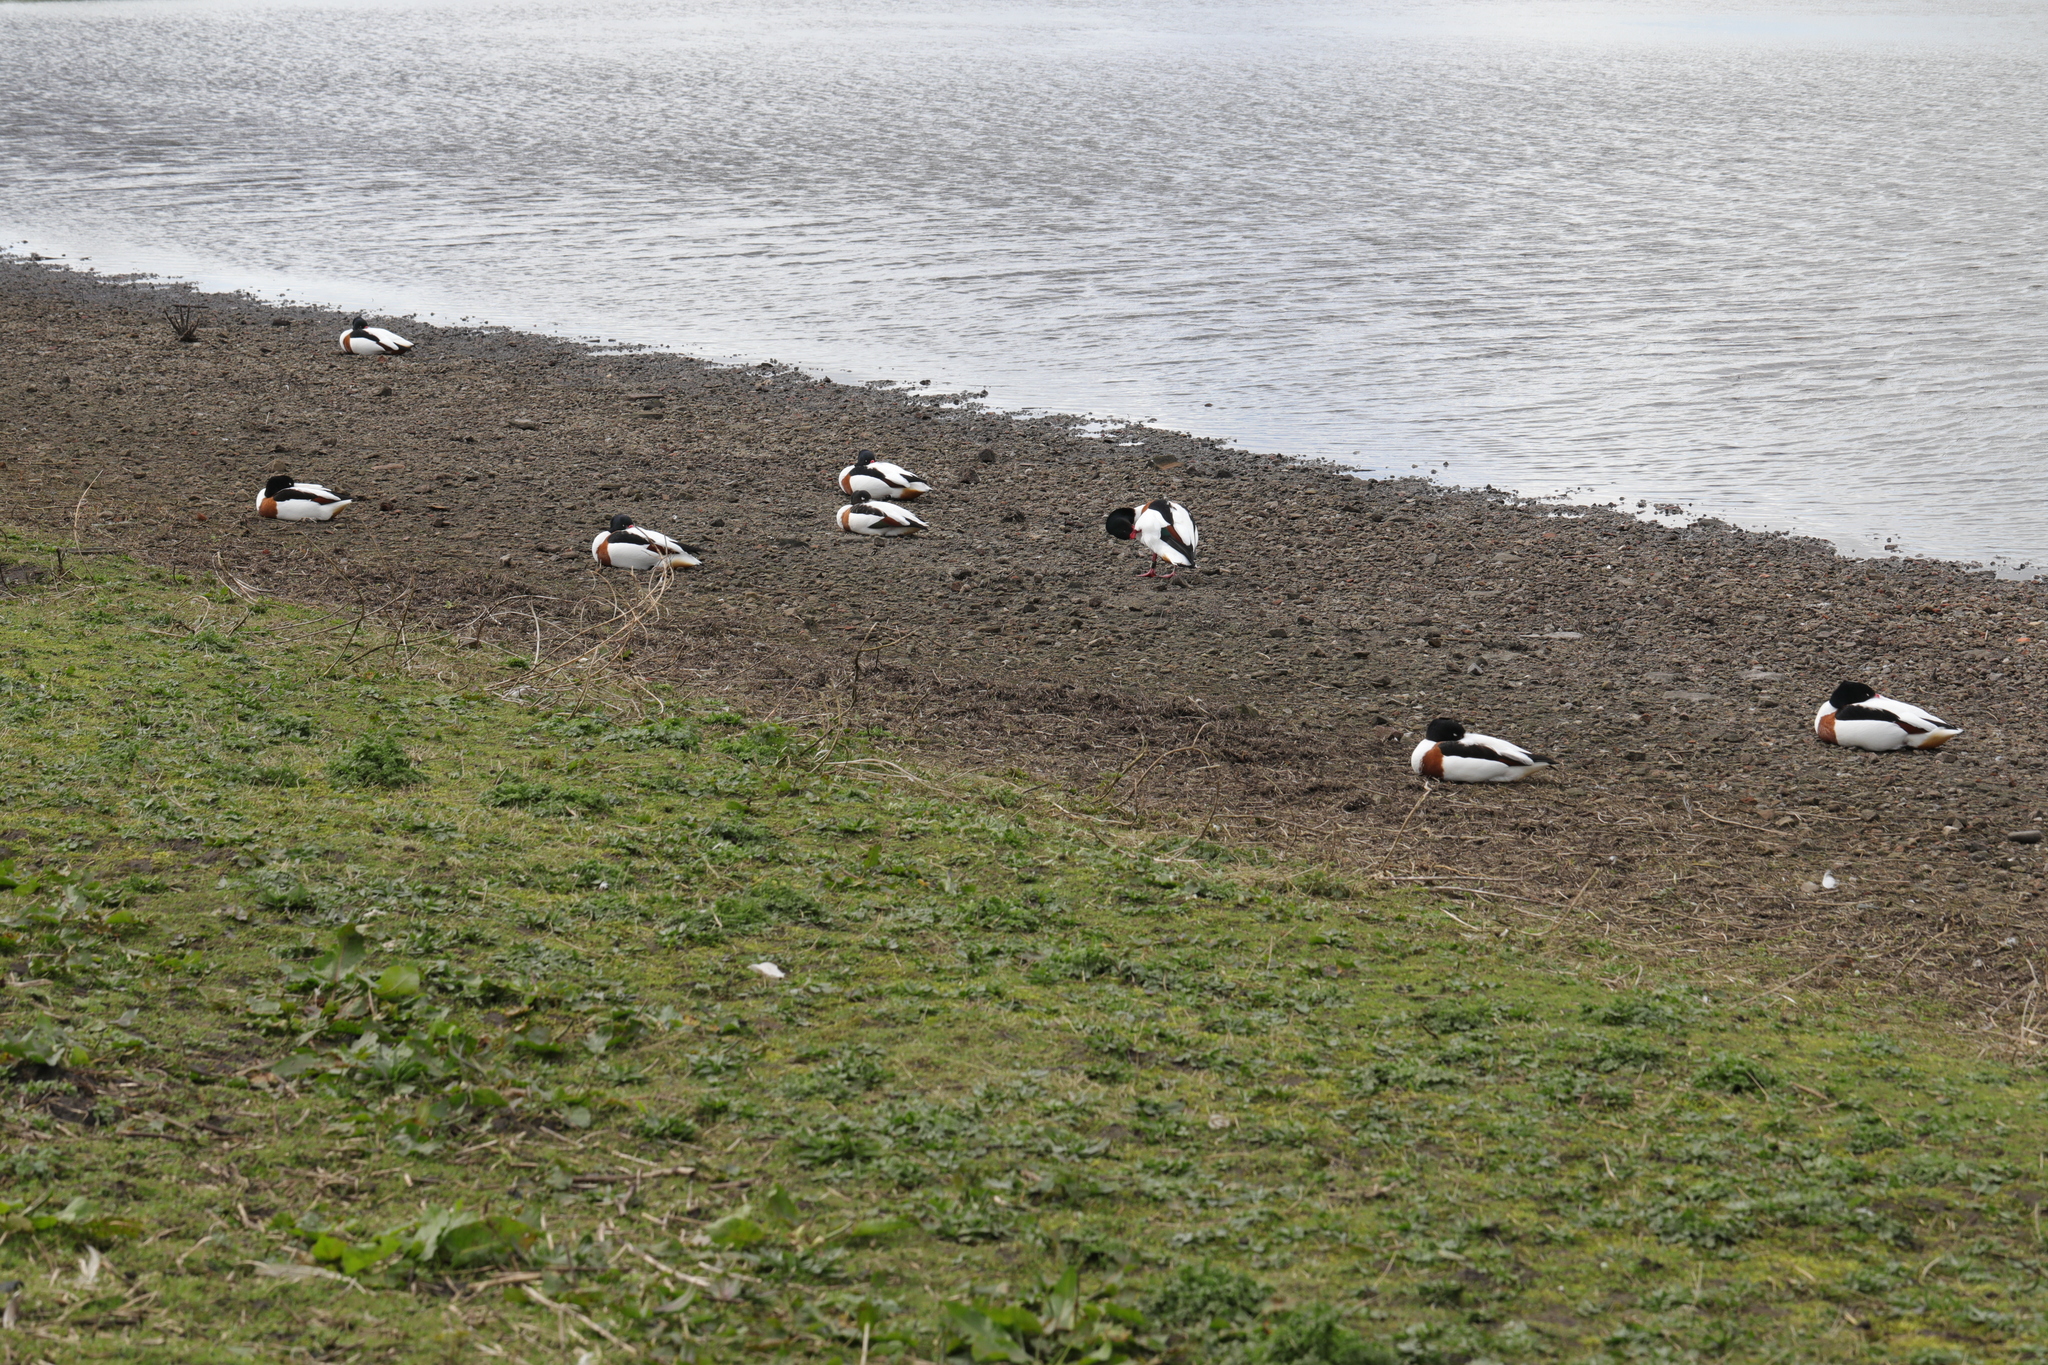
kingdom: Animalia
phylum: Chordata
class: Aves
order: Anseriformes
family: Anatidae
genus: Tadorna
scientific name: Tadorna tadorna
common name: Common shelduck
